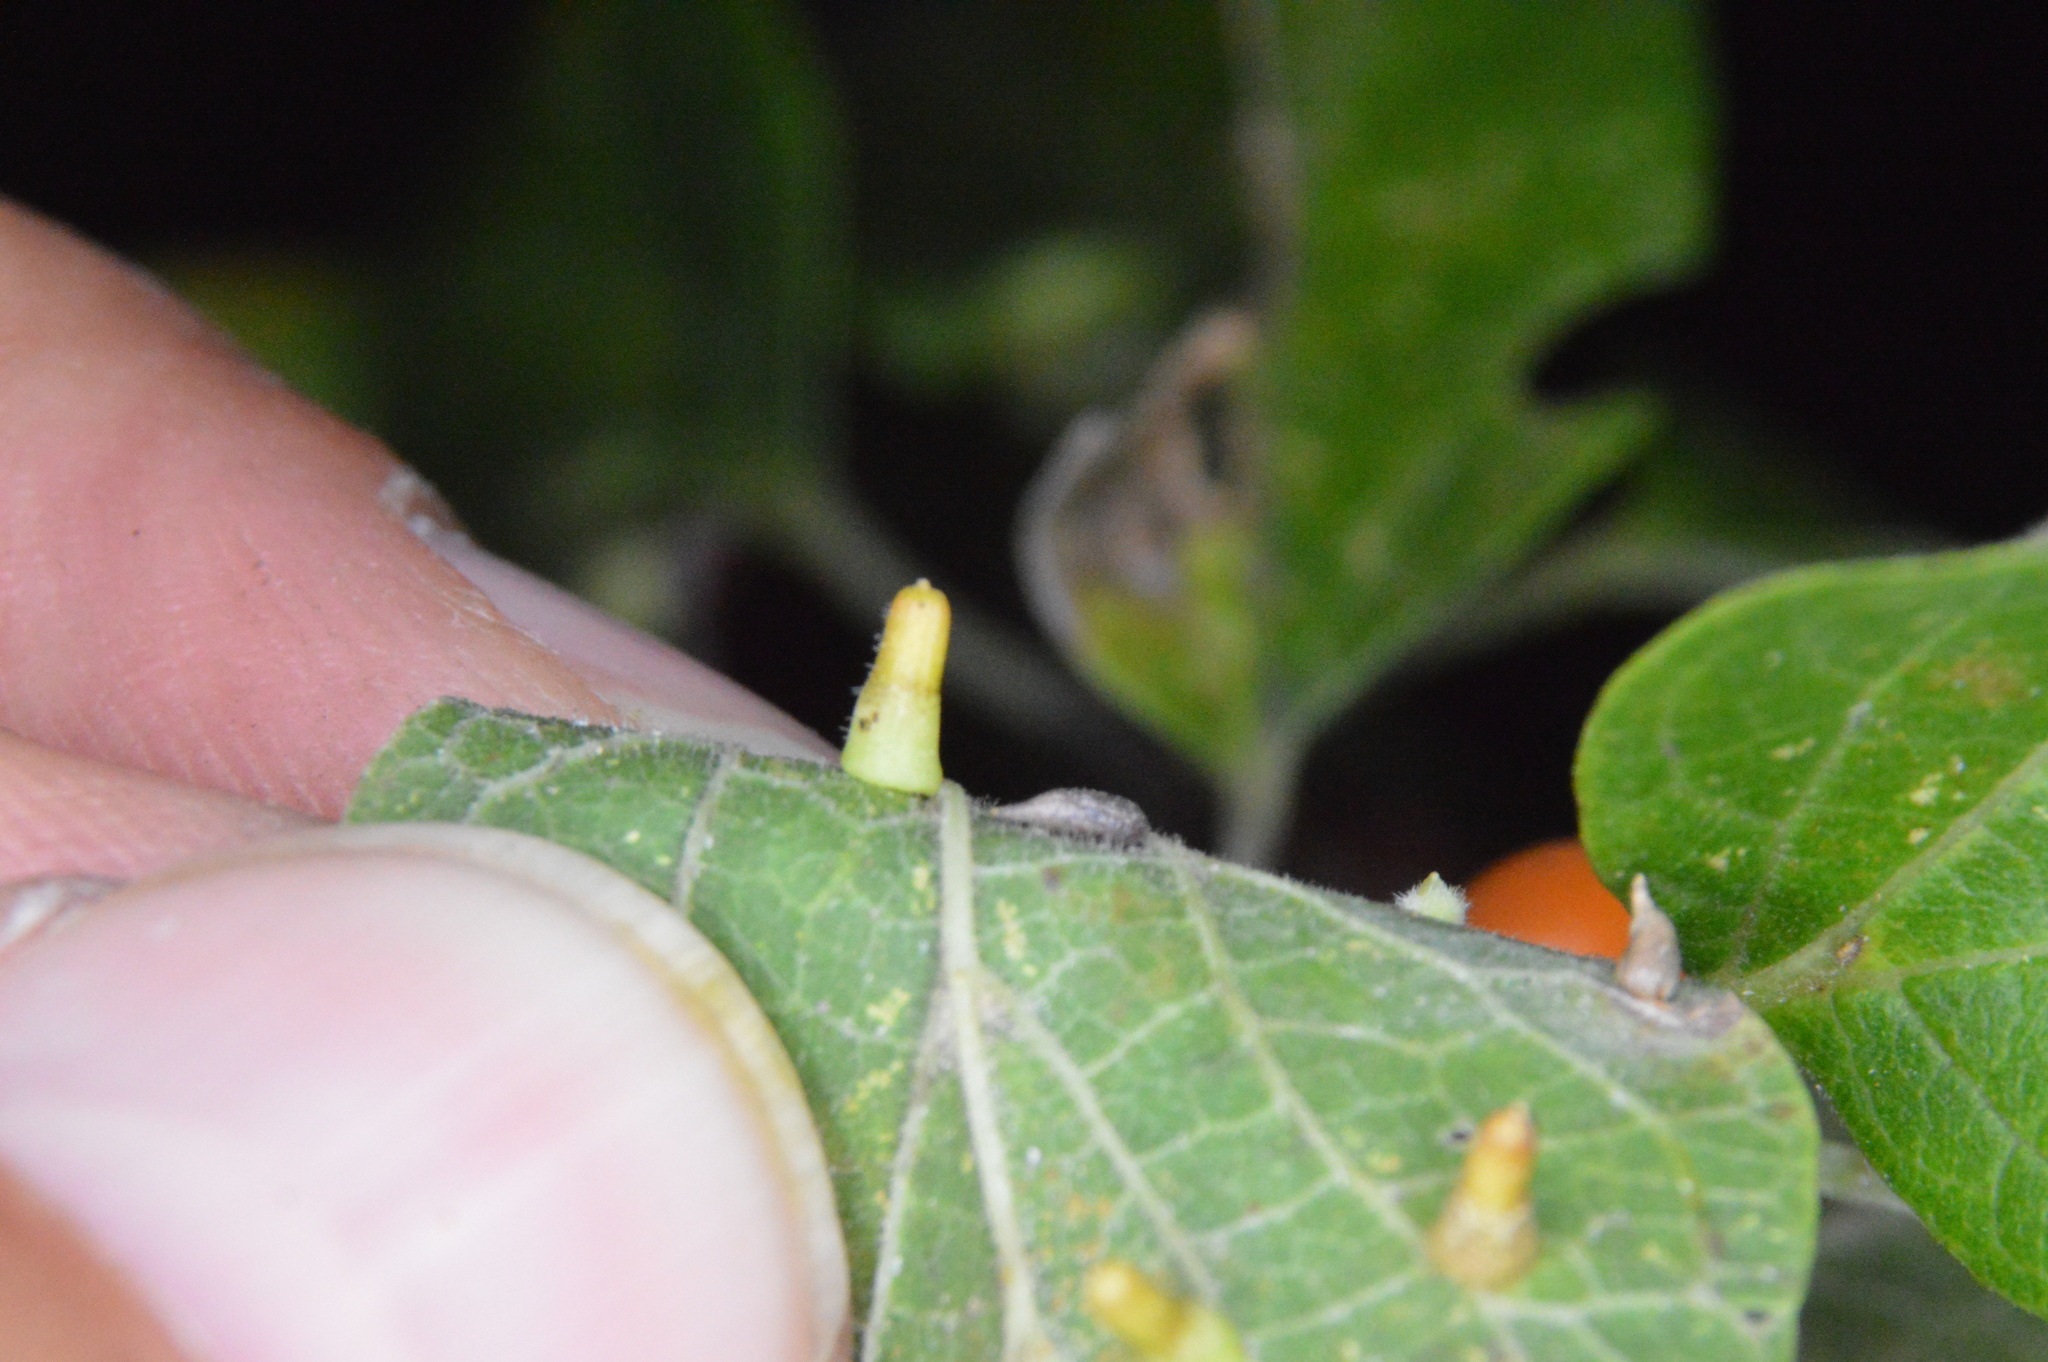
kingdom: Animalia
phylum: Arthropoda
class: Insecta
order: Diptera
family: Cecidomyiidae
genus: Celticecis
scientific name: Celticecis supina
